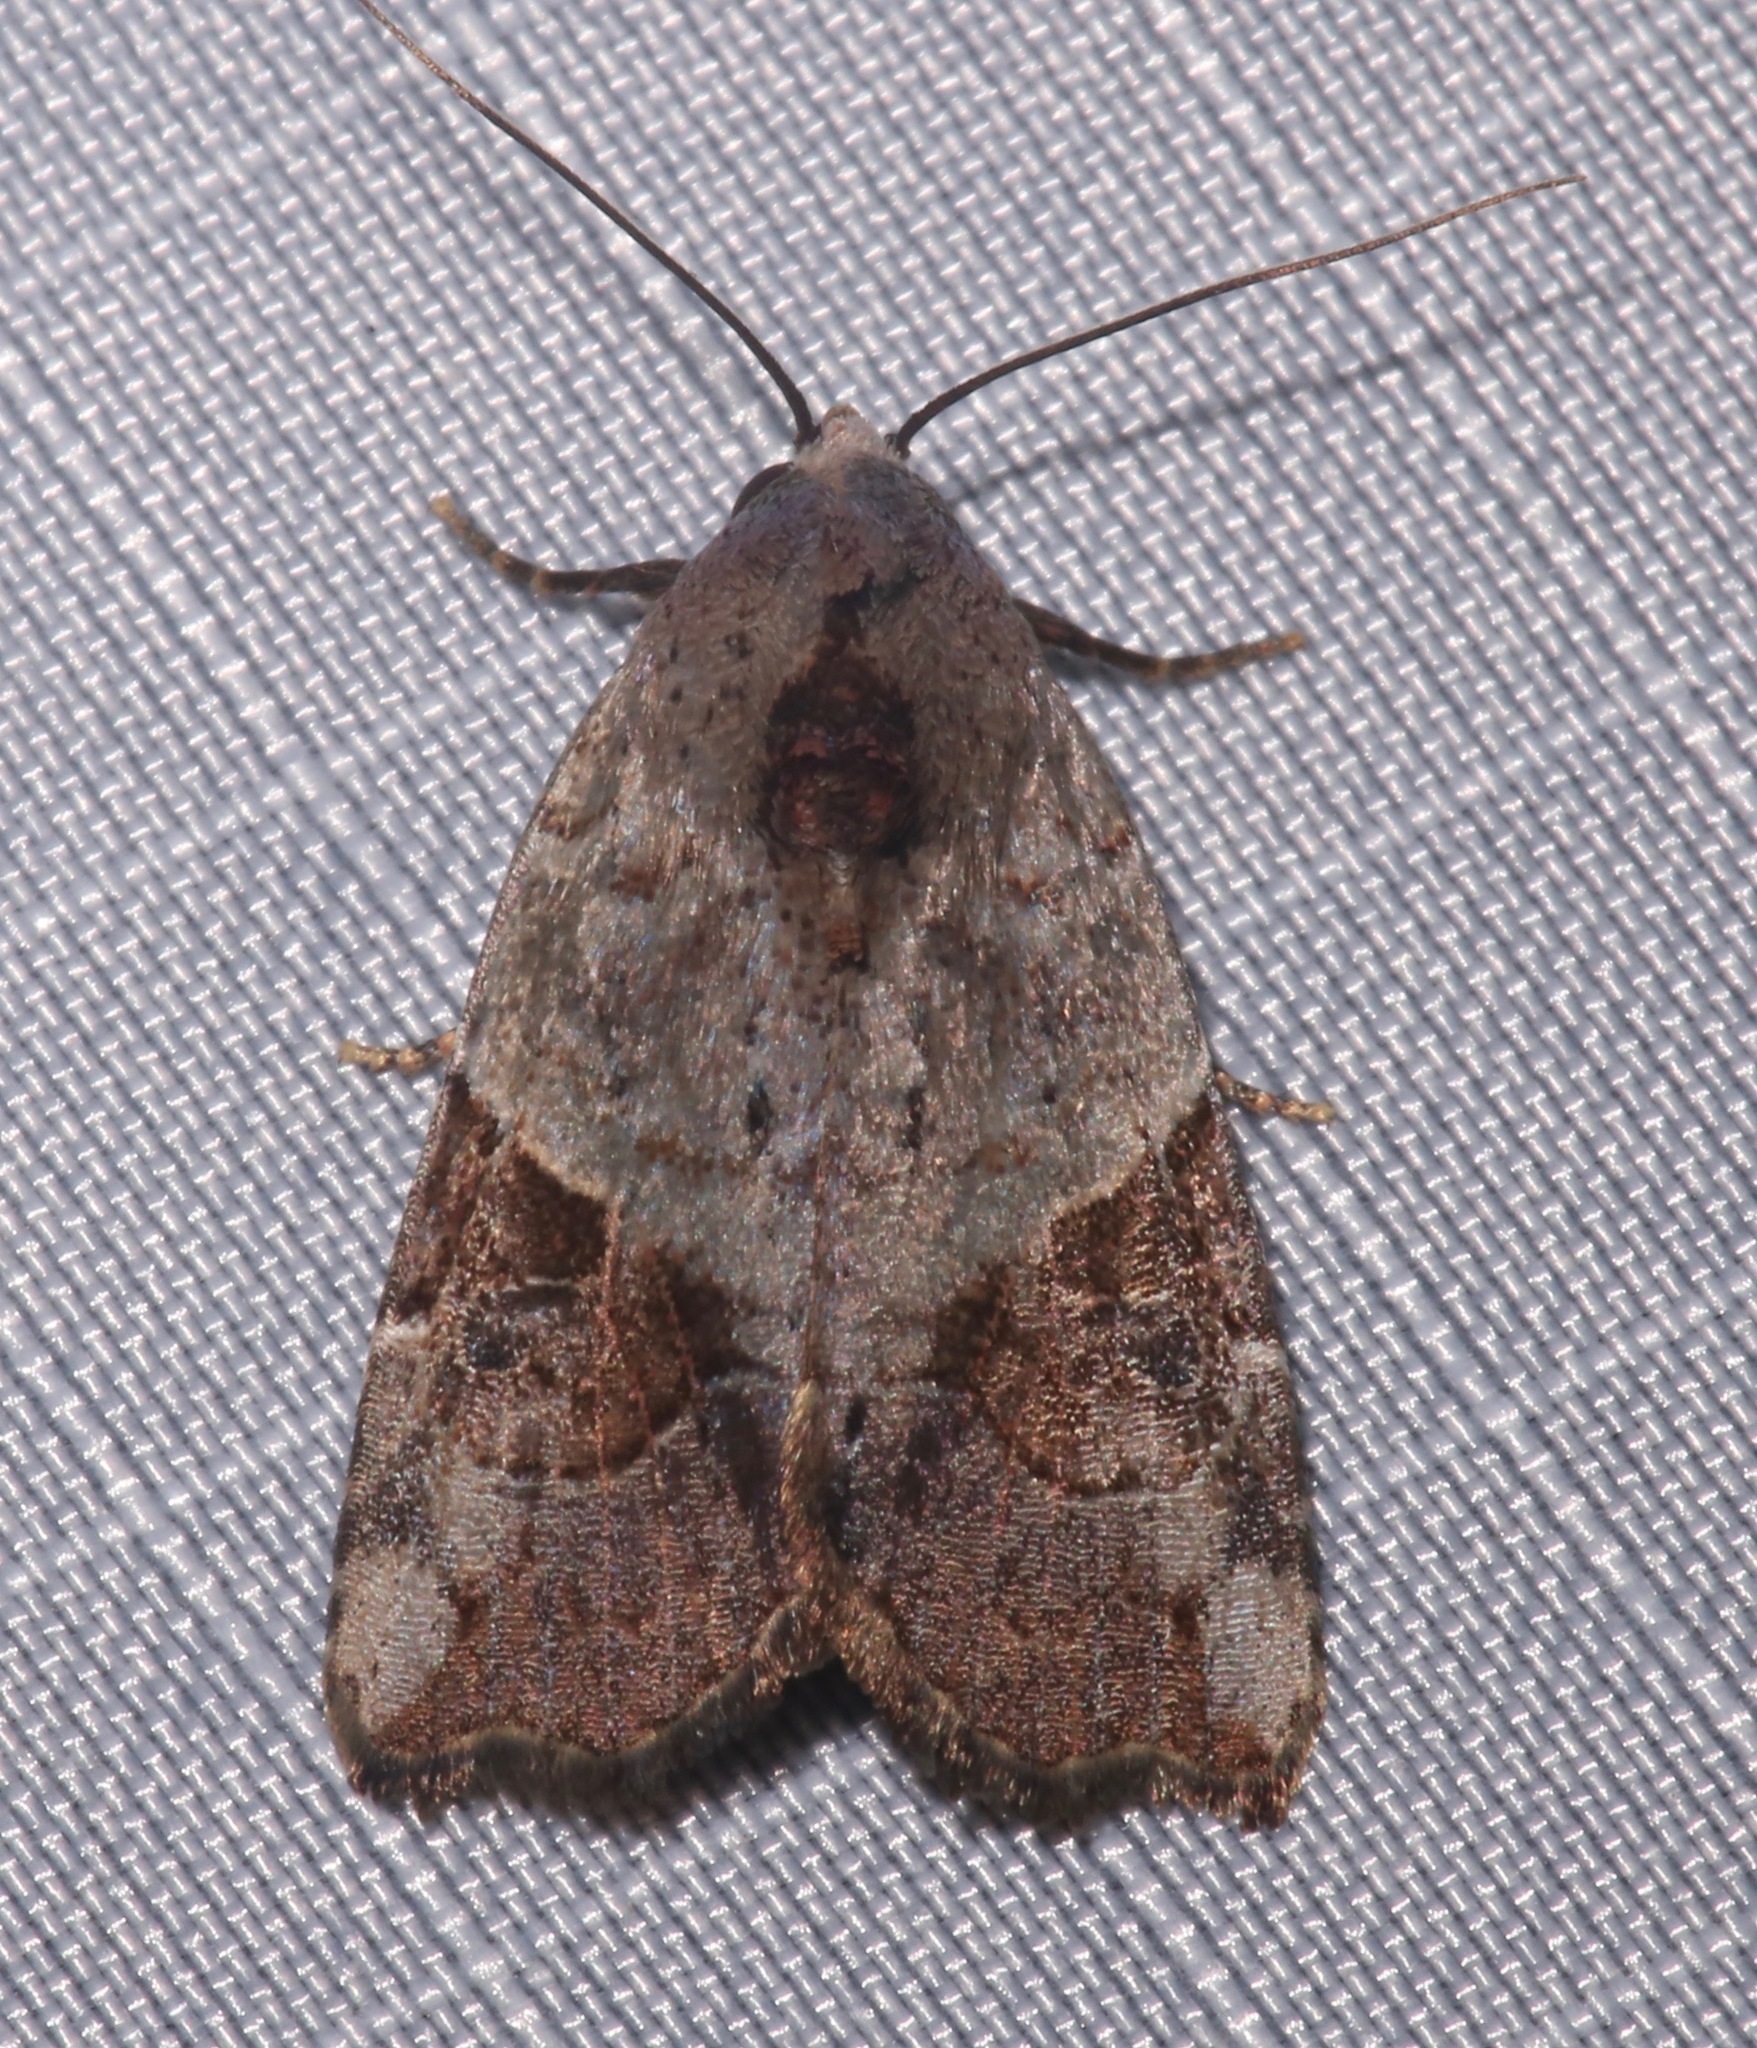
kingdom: Animalia
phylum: Arthropoda
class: Insecta
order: Lepidoptera
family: Noctuidae
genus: Gonodes
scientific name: Gonodes liquida
